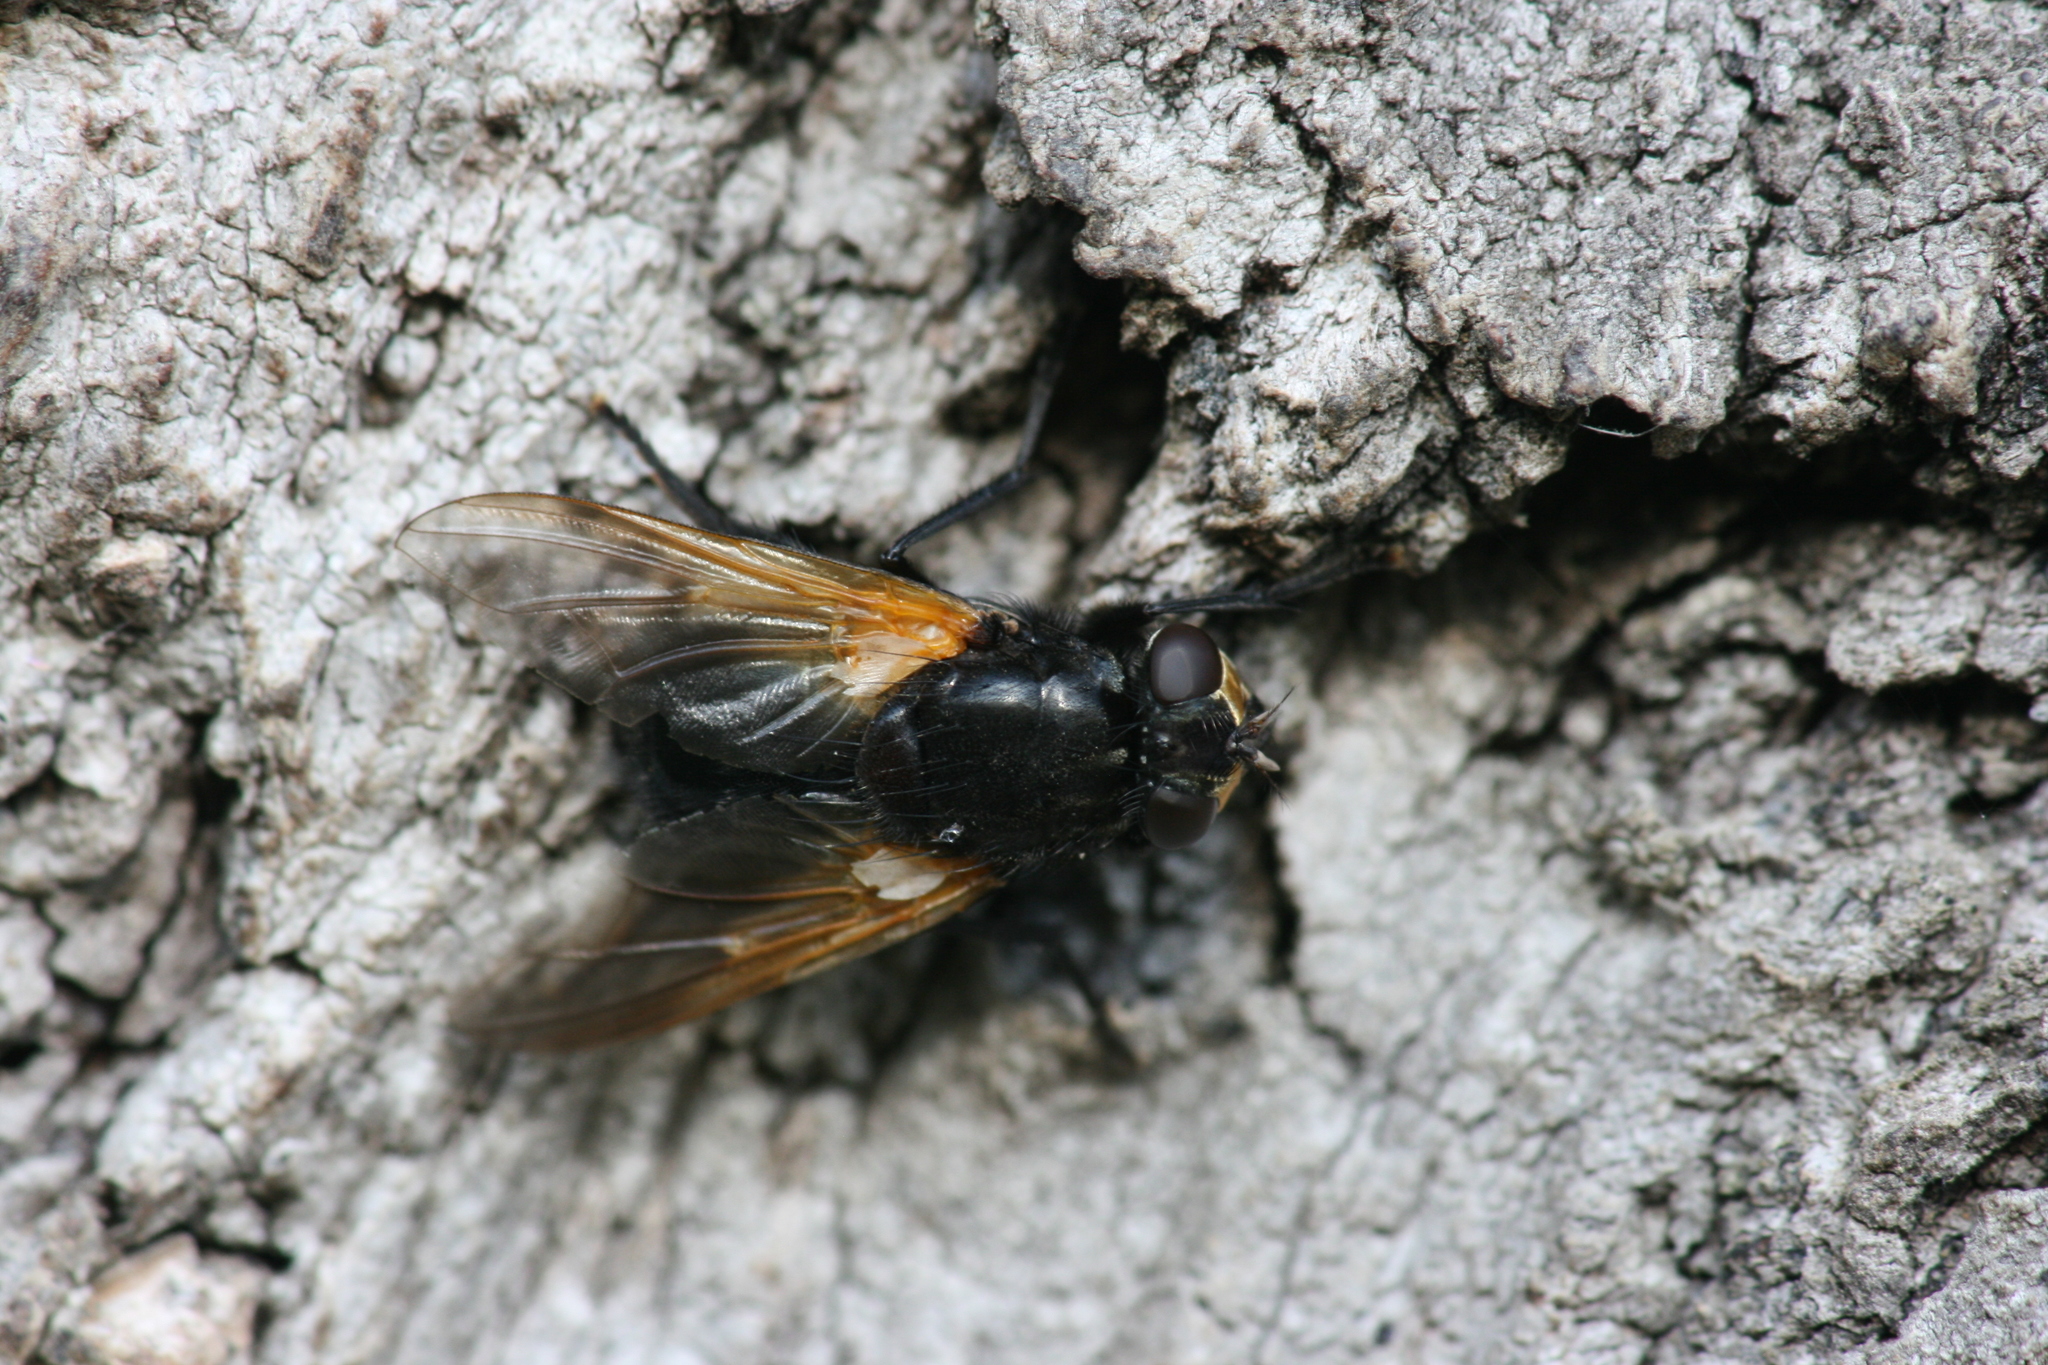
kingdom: Animalia
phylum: Arthropoda
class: Insecta
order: Diptera
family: Muscidae
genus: Mesembrina
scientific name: Mesembrina meridiana
